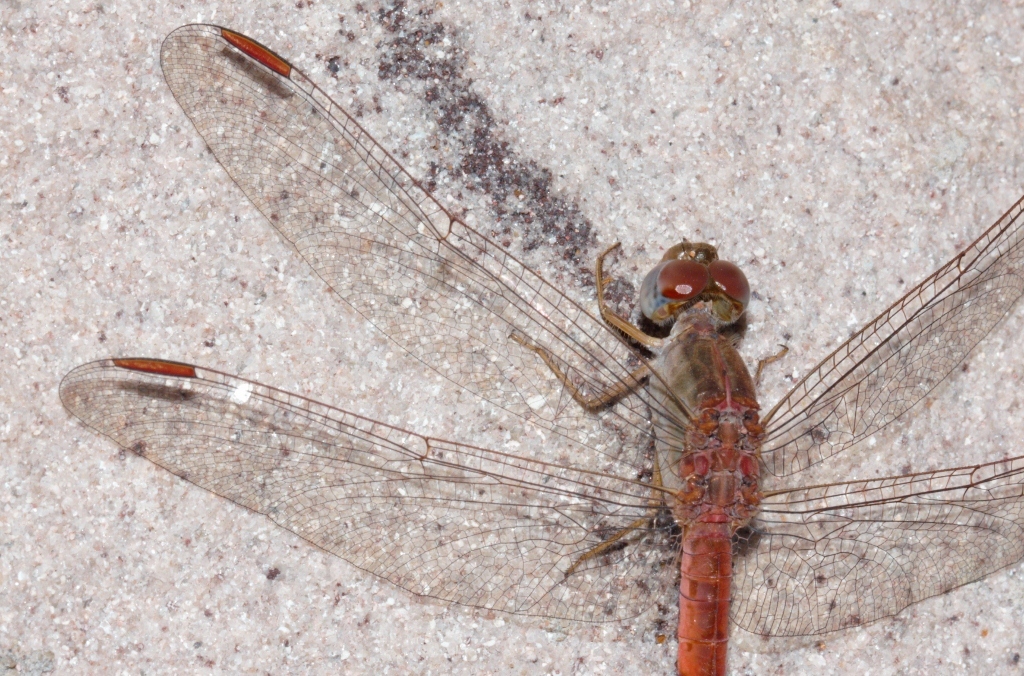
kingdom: Animalia
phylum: Arthropoda
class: Insecta
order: Odonata
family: Libellulidae
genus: Crocothemis
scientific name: Crocothemis divisa
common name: Divisa scarlet
